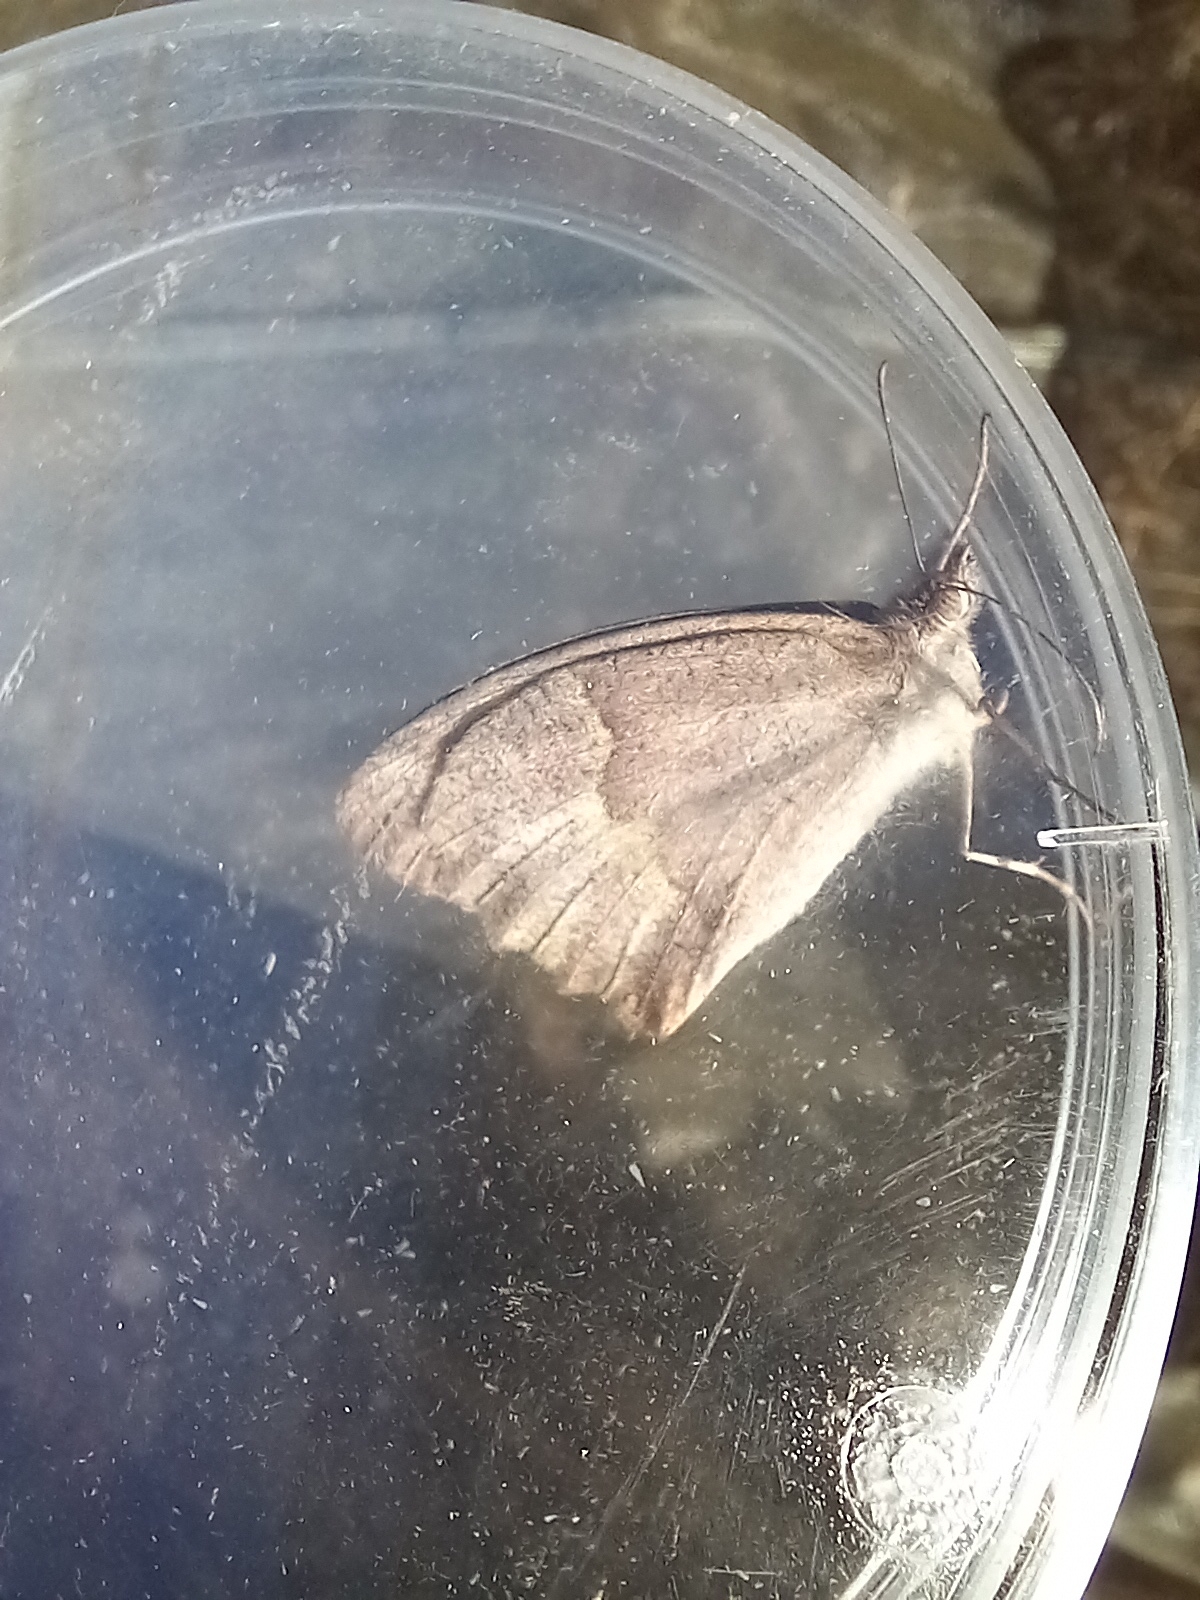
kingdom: Animalia
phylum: Arthropoda
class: Insecta
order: Lepidoptera
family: Nymphalidae
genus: Maniola
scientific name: Maniola jurtina
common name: Meadow brown
